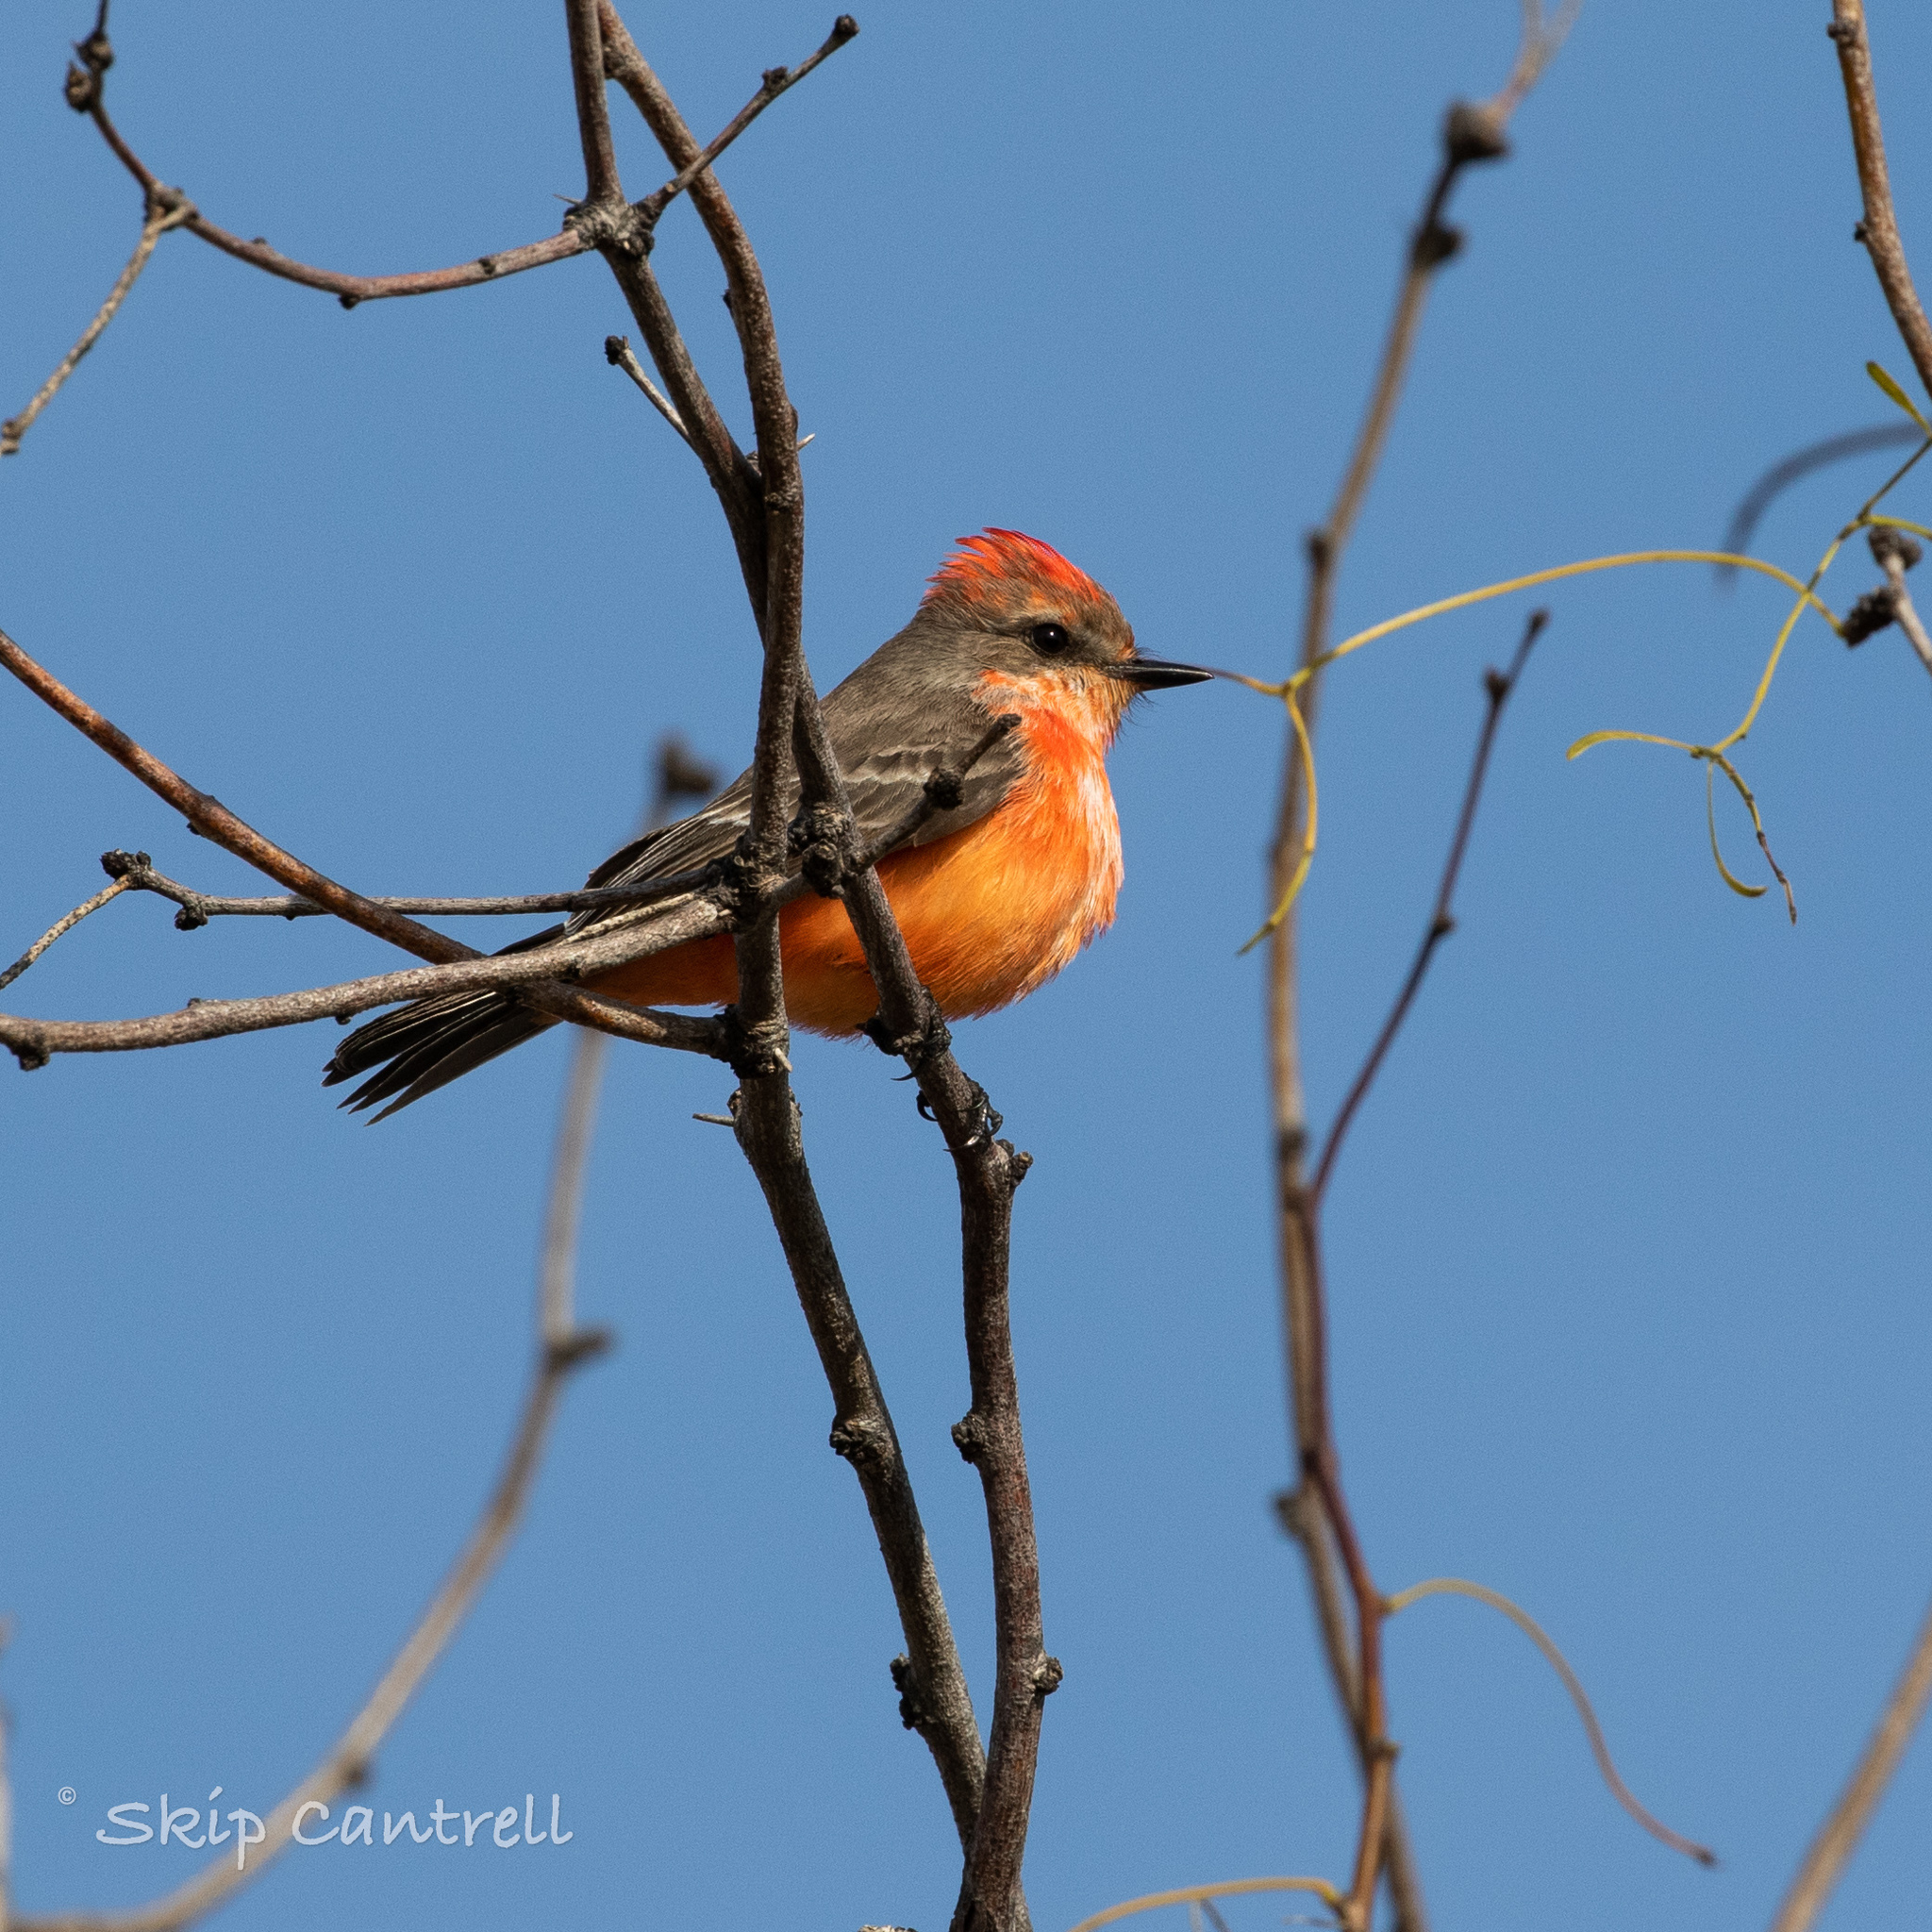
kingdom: Animalia
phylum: Chordata
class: Aves
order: Passeriformes
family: Tyrannidae
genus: Pyrocephalus
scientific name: Pyrocephalus rubinus
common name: Vermilion flycatcher
